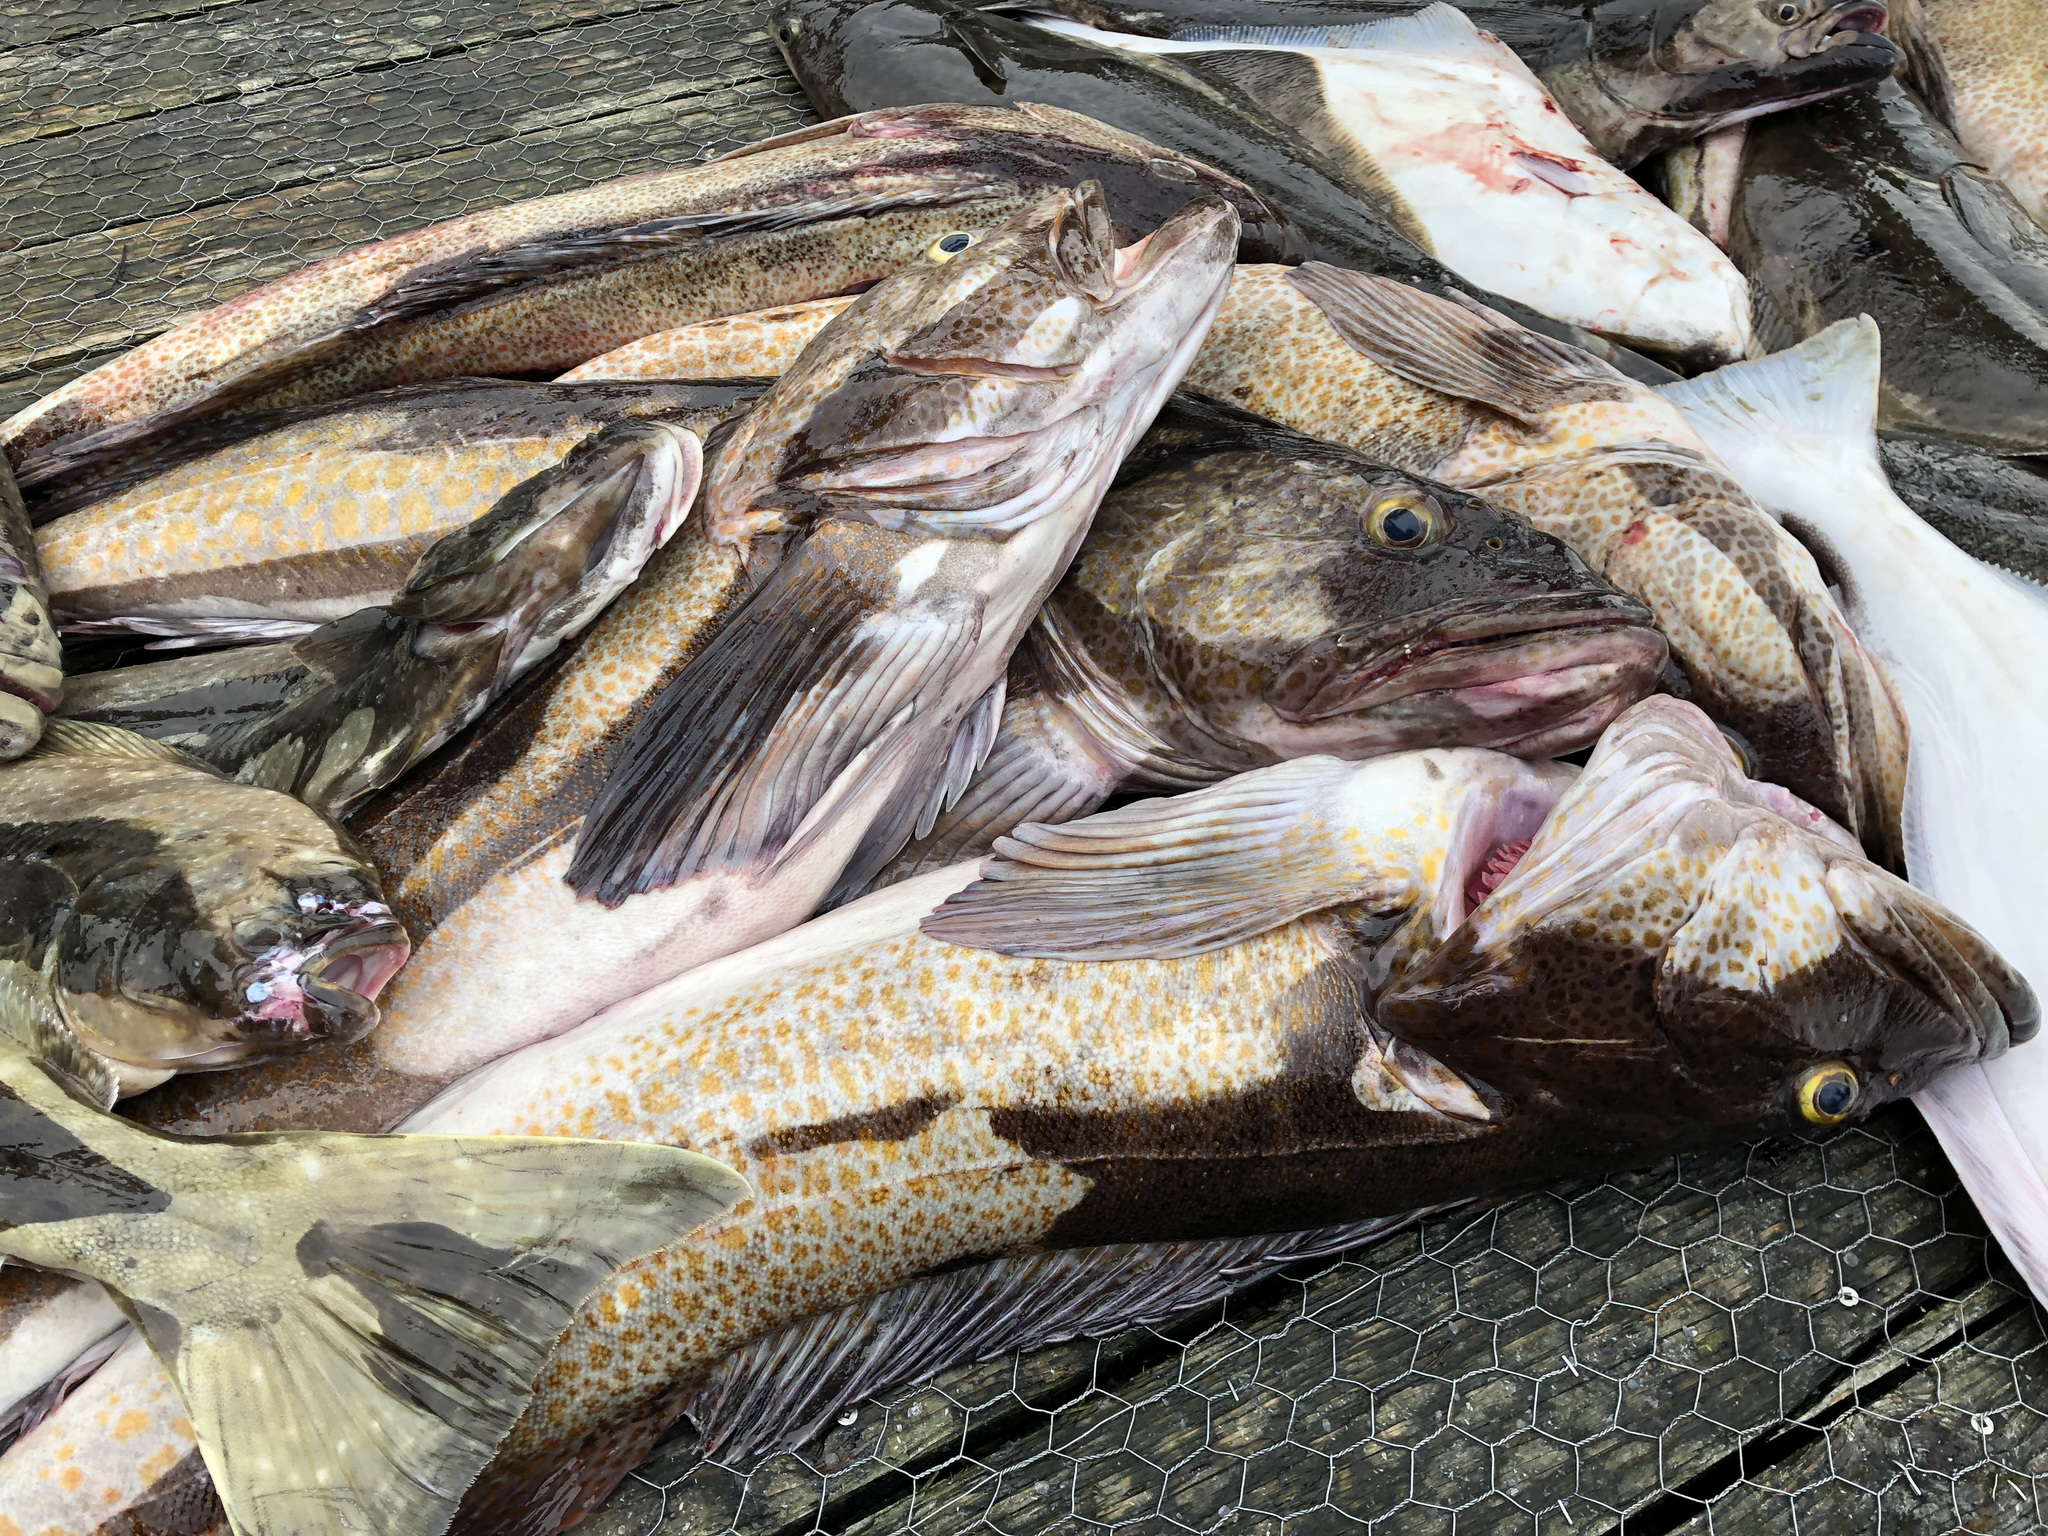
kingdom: Animalia
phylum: Chordata
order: Scorpaeniformes
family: Hexagrammidae
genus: Ophiodon
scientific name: Ophiodon elongatus
